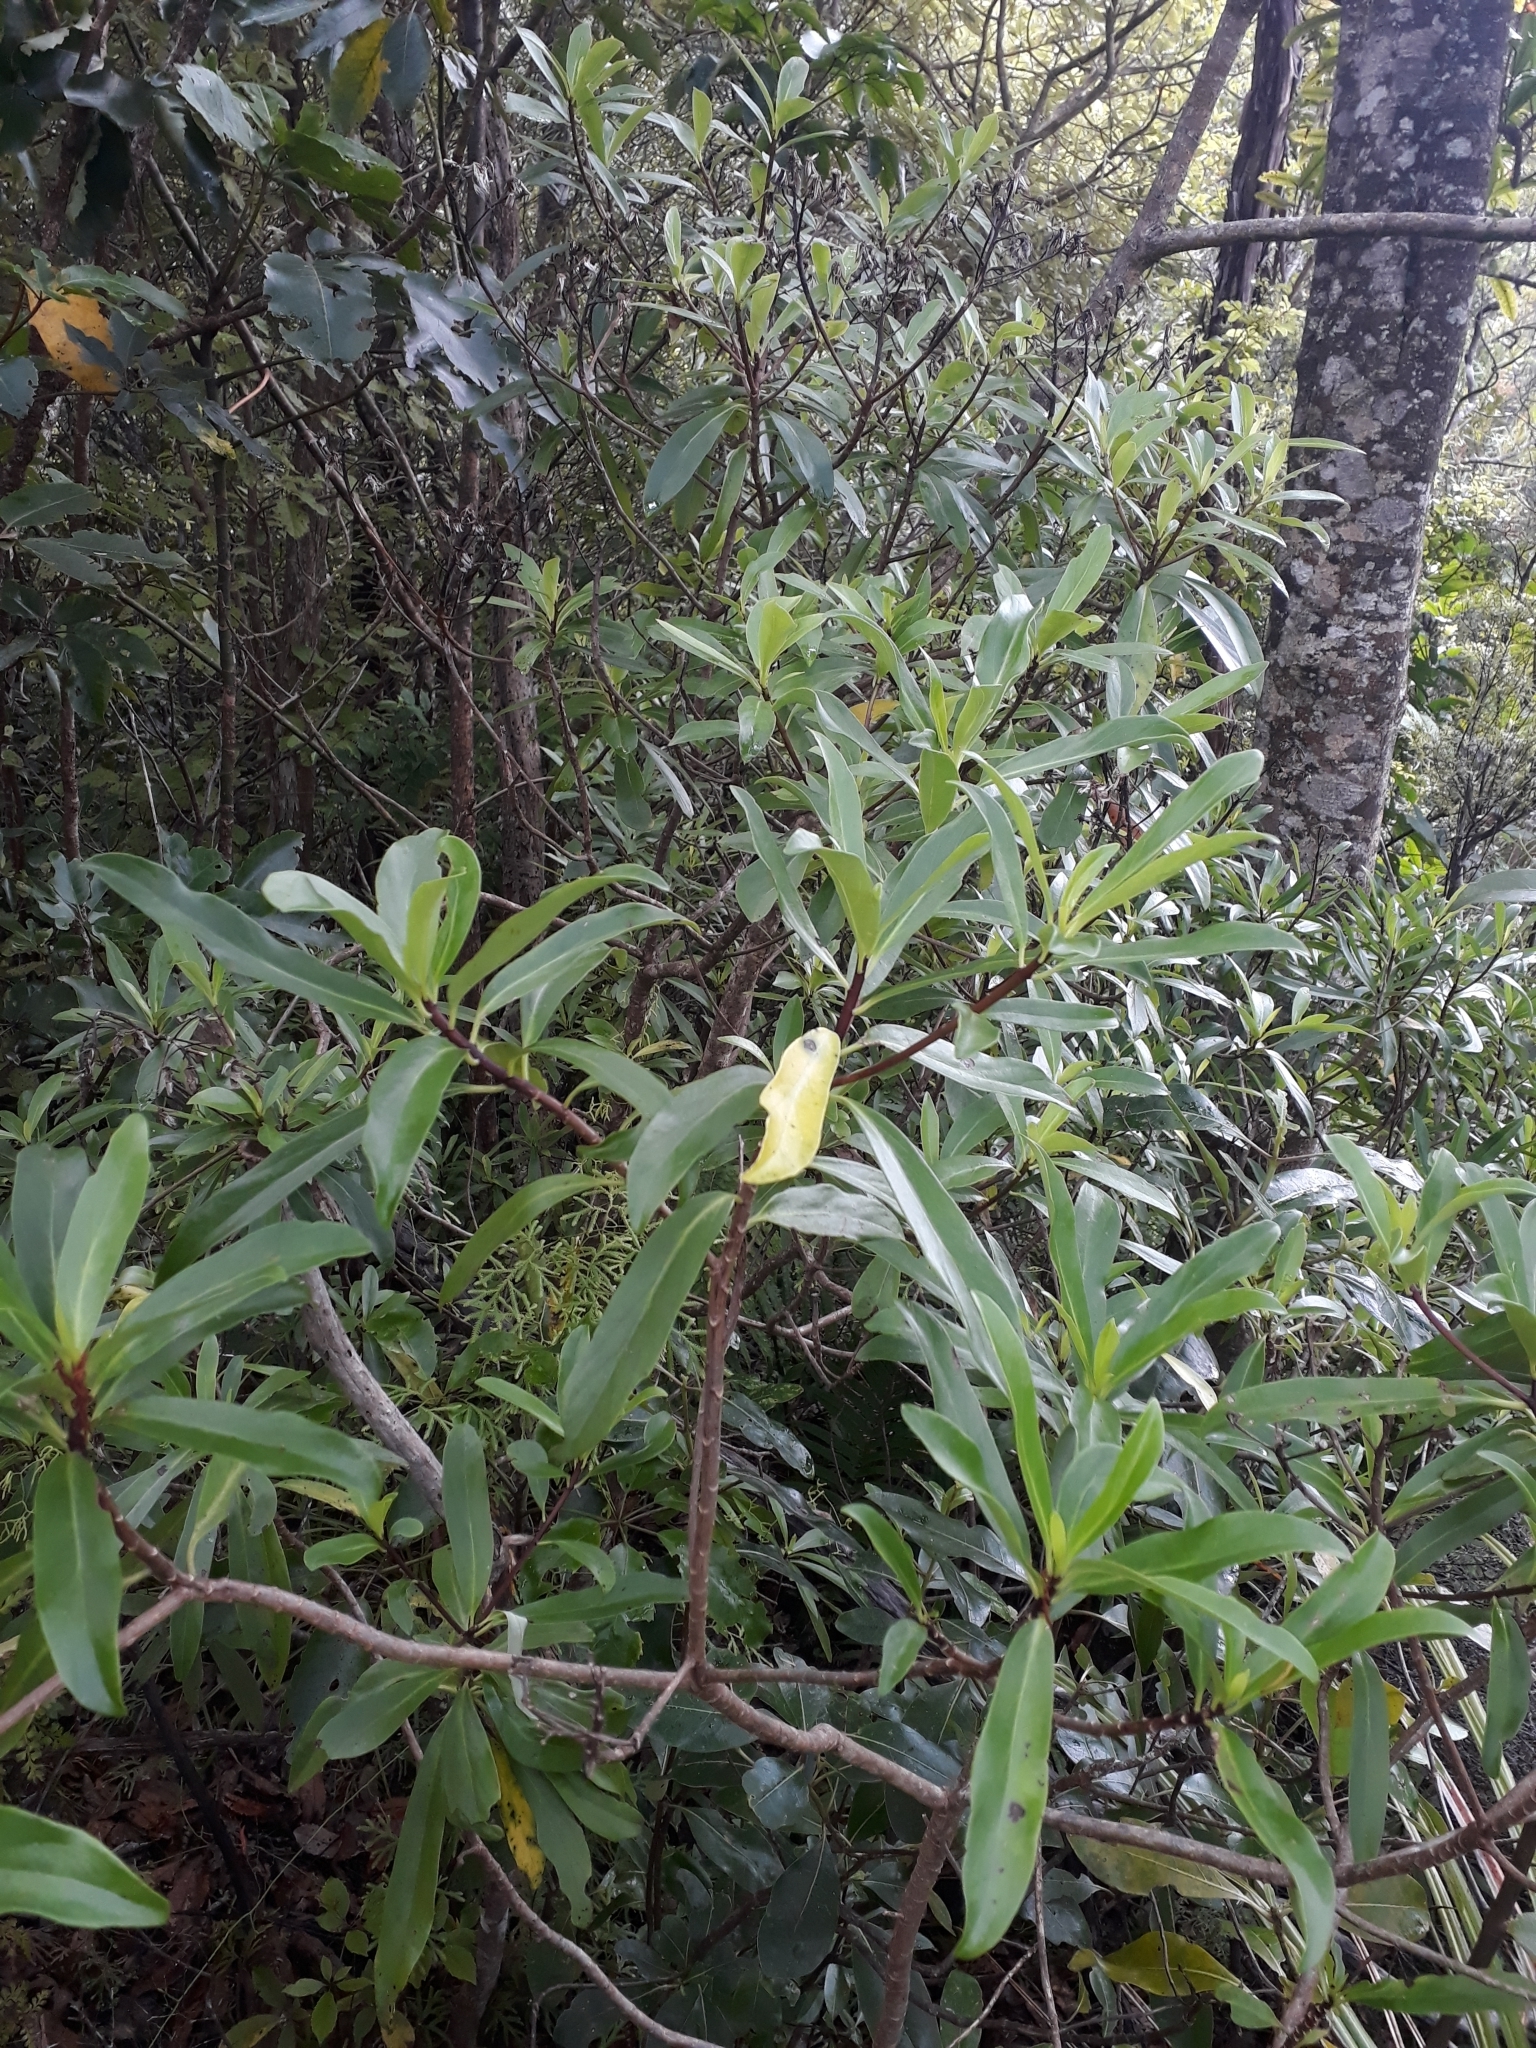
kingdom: Plantae
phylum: Tracheophyta
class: Magnoliopsida
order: Asterales
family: Asteraceae
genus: Brachyglottis
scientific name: Brachyglottis kirkii
